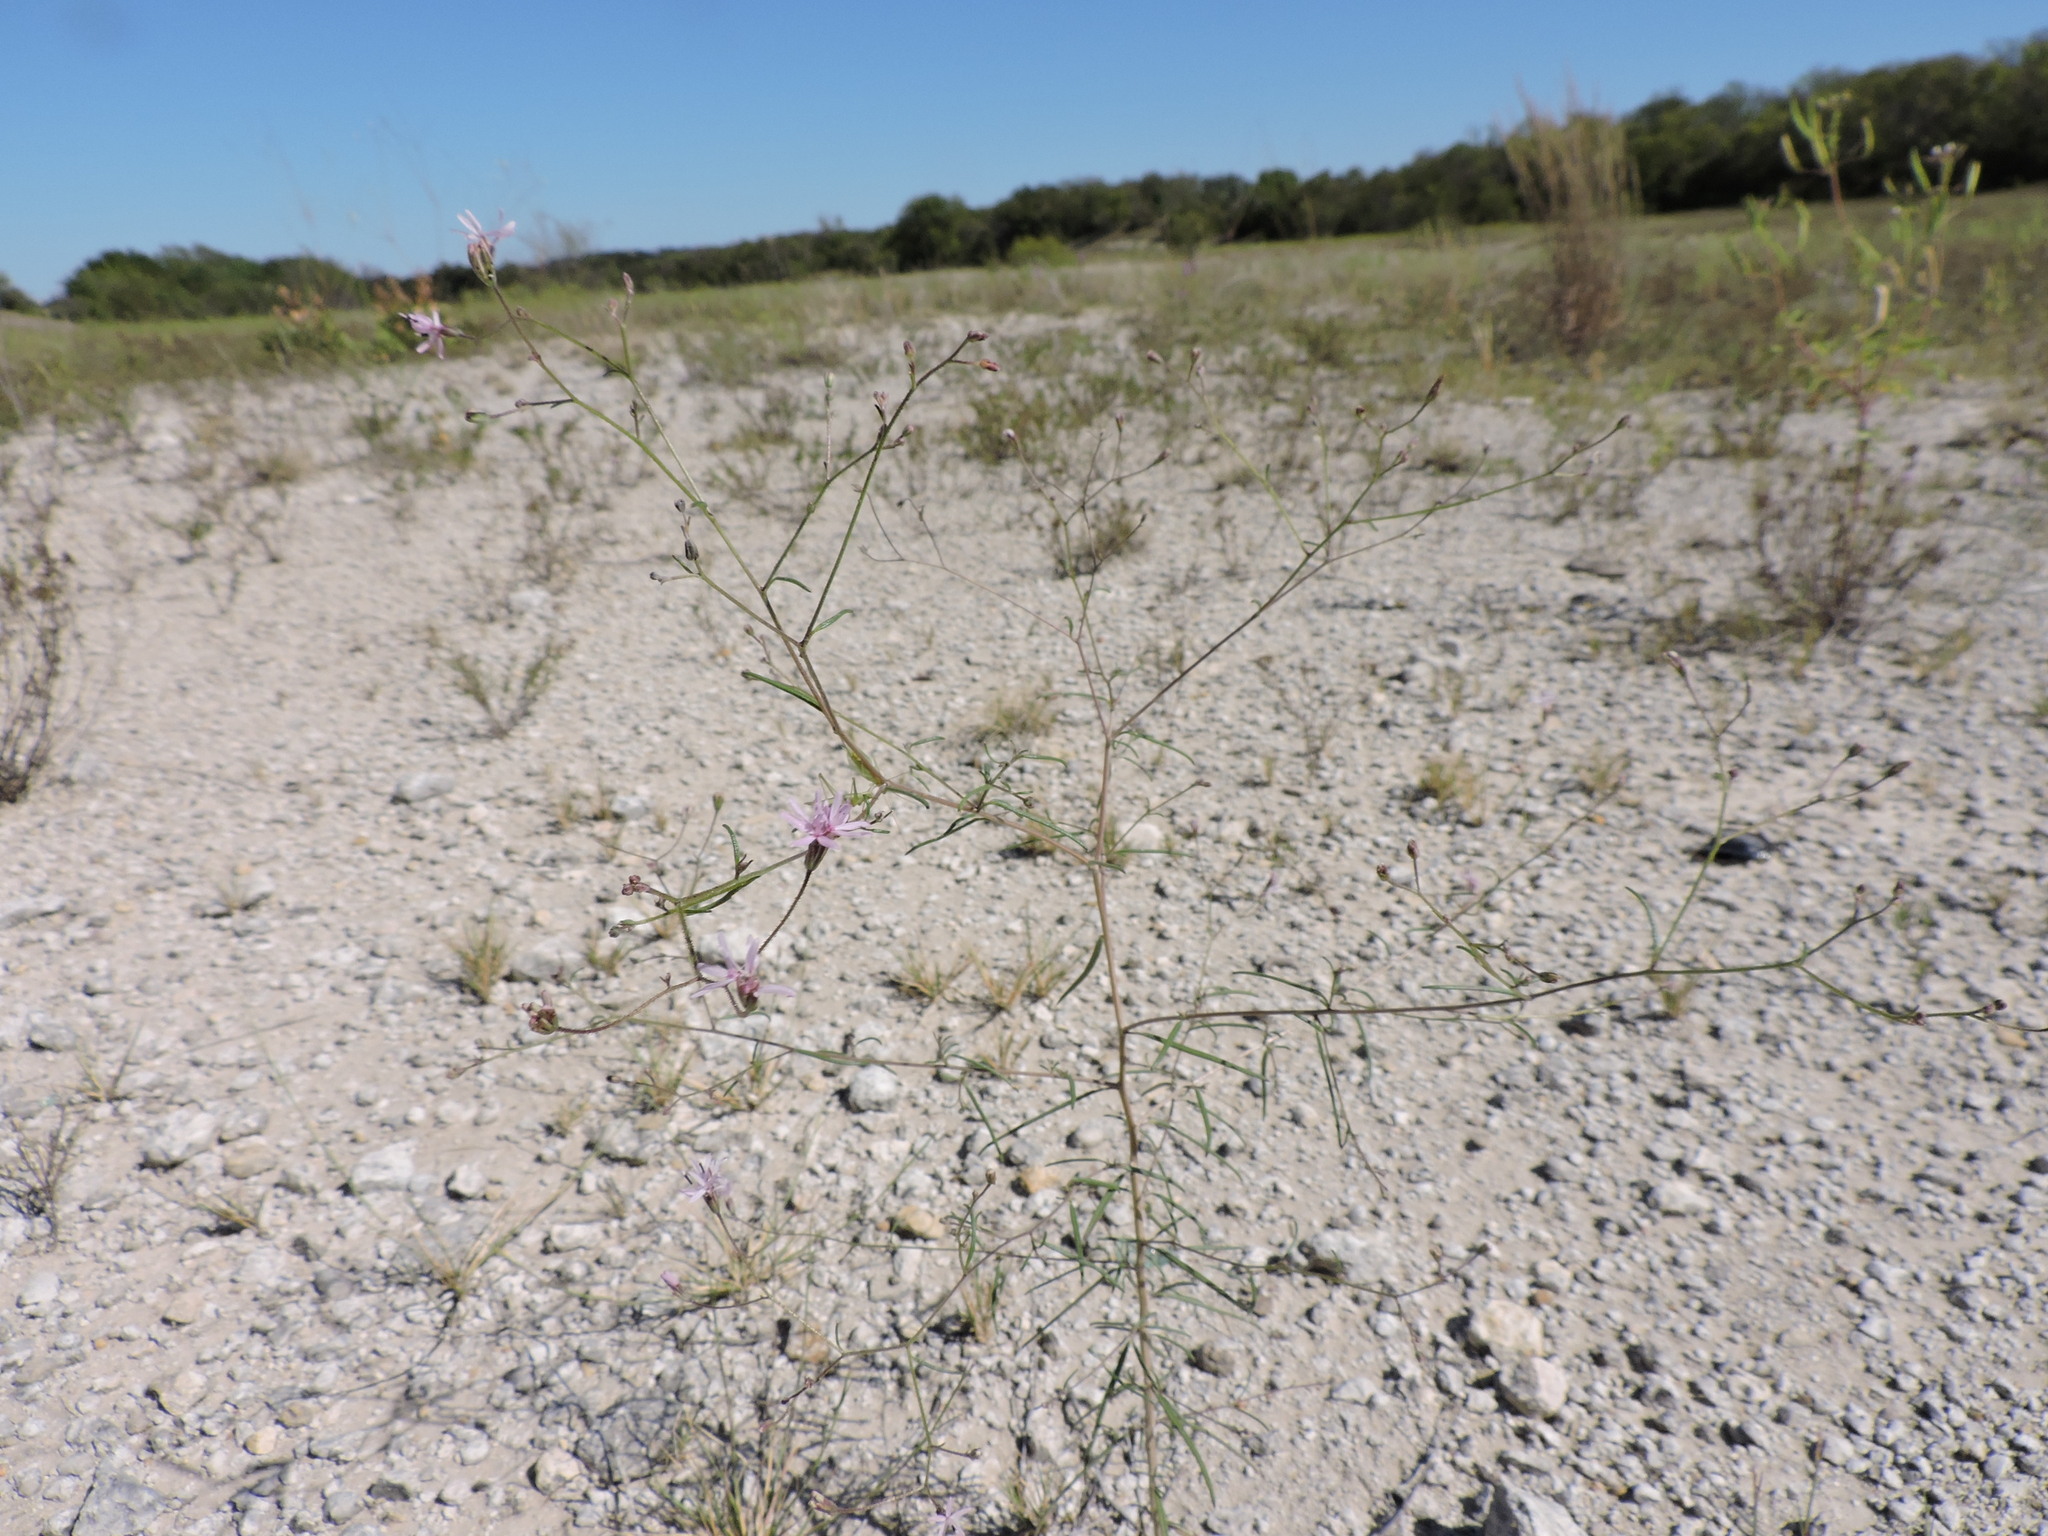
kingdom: Plantae
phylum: Tracheophyta
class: Magnoliopsida
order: Asterales
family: Asteraceae
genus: Palafoxia
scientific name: Palafoxia callosa
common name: Small palafox
